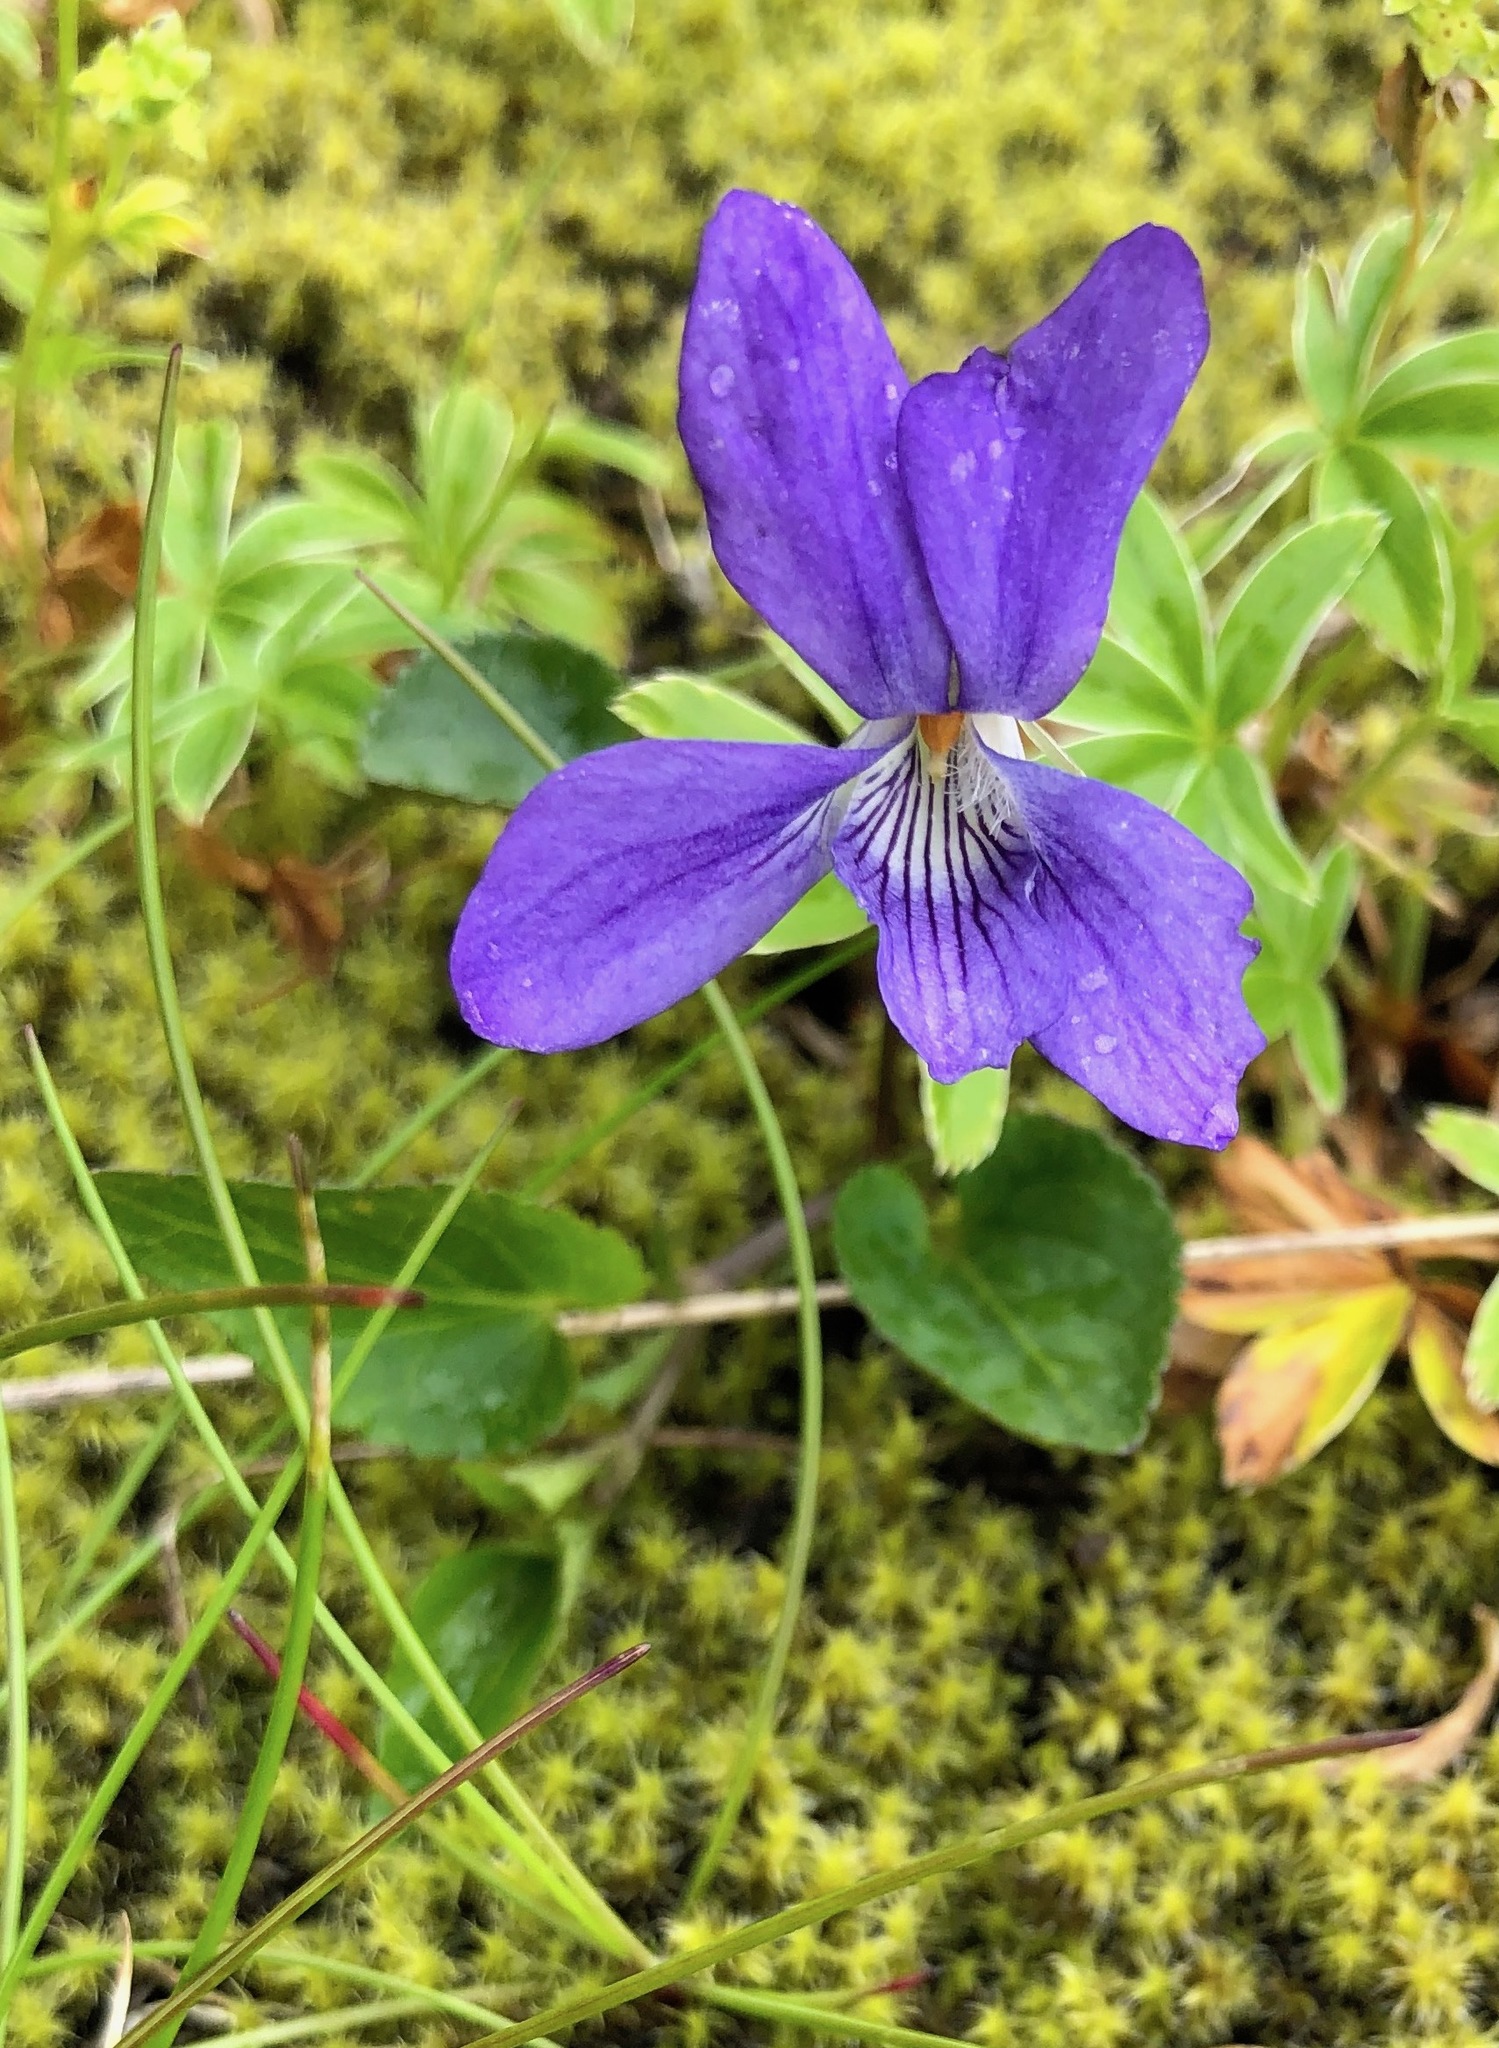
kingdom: Plantae
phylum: Tracheophyta
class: Magnoliopsida
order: Malpighiales
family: Violaceae
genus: Viola
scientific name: Viola canina
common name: Heath dog-violet
